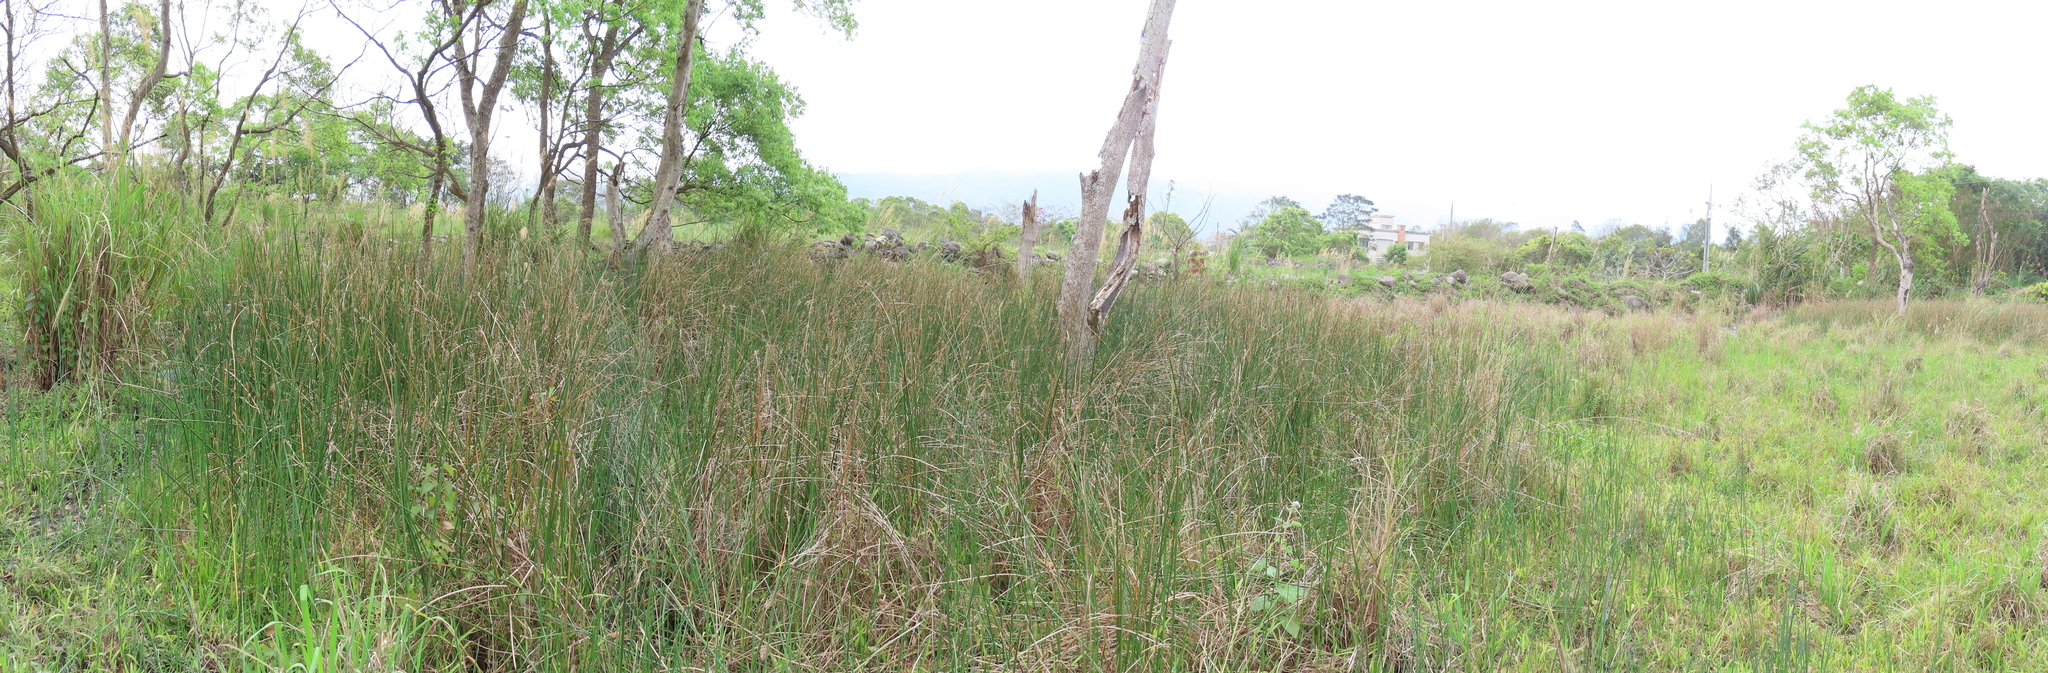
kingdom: Plantae
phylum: Tracheophyta
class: Liliopsida
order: Poales
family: Cyperaceae
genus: Schoenoplectus
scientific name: Schoenoplectus tabernaemontani
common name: Grey club-rush
